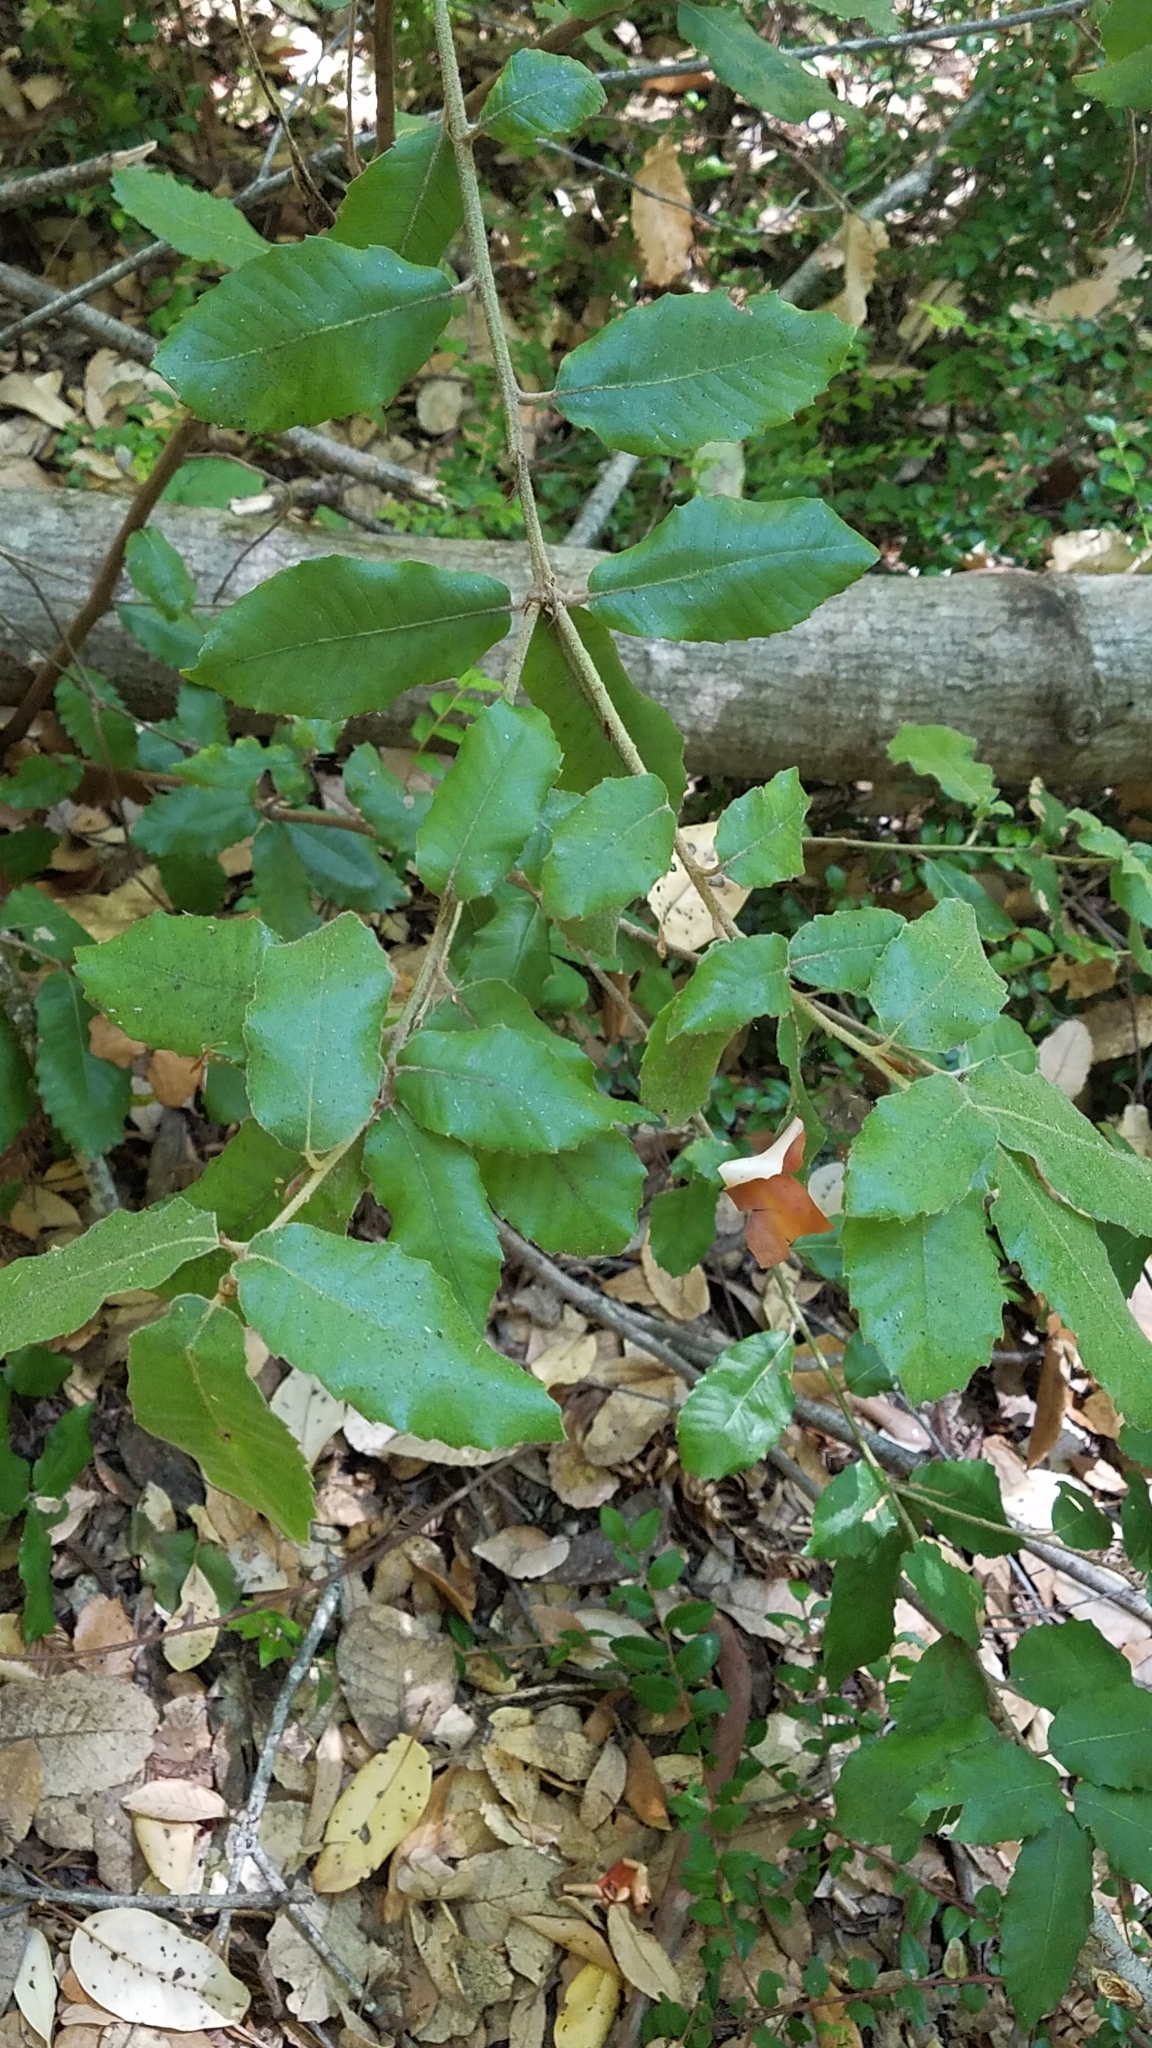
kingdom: Plantae
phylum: Tracheophyta
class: Magnoliopsida
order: Fagales
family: Fagaceae
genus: Notholithocarpus
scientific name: Notholithocarpus densiflorus
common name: Tan bark oak
